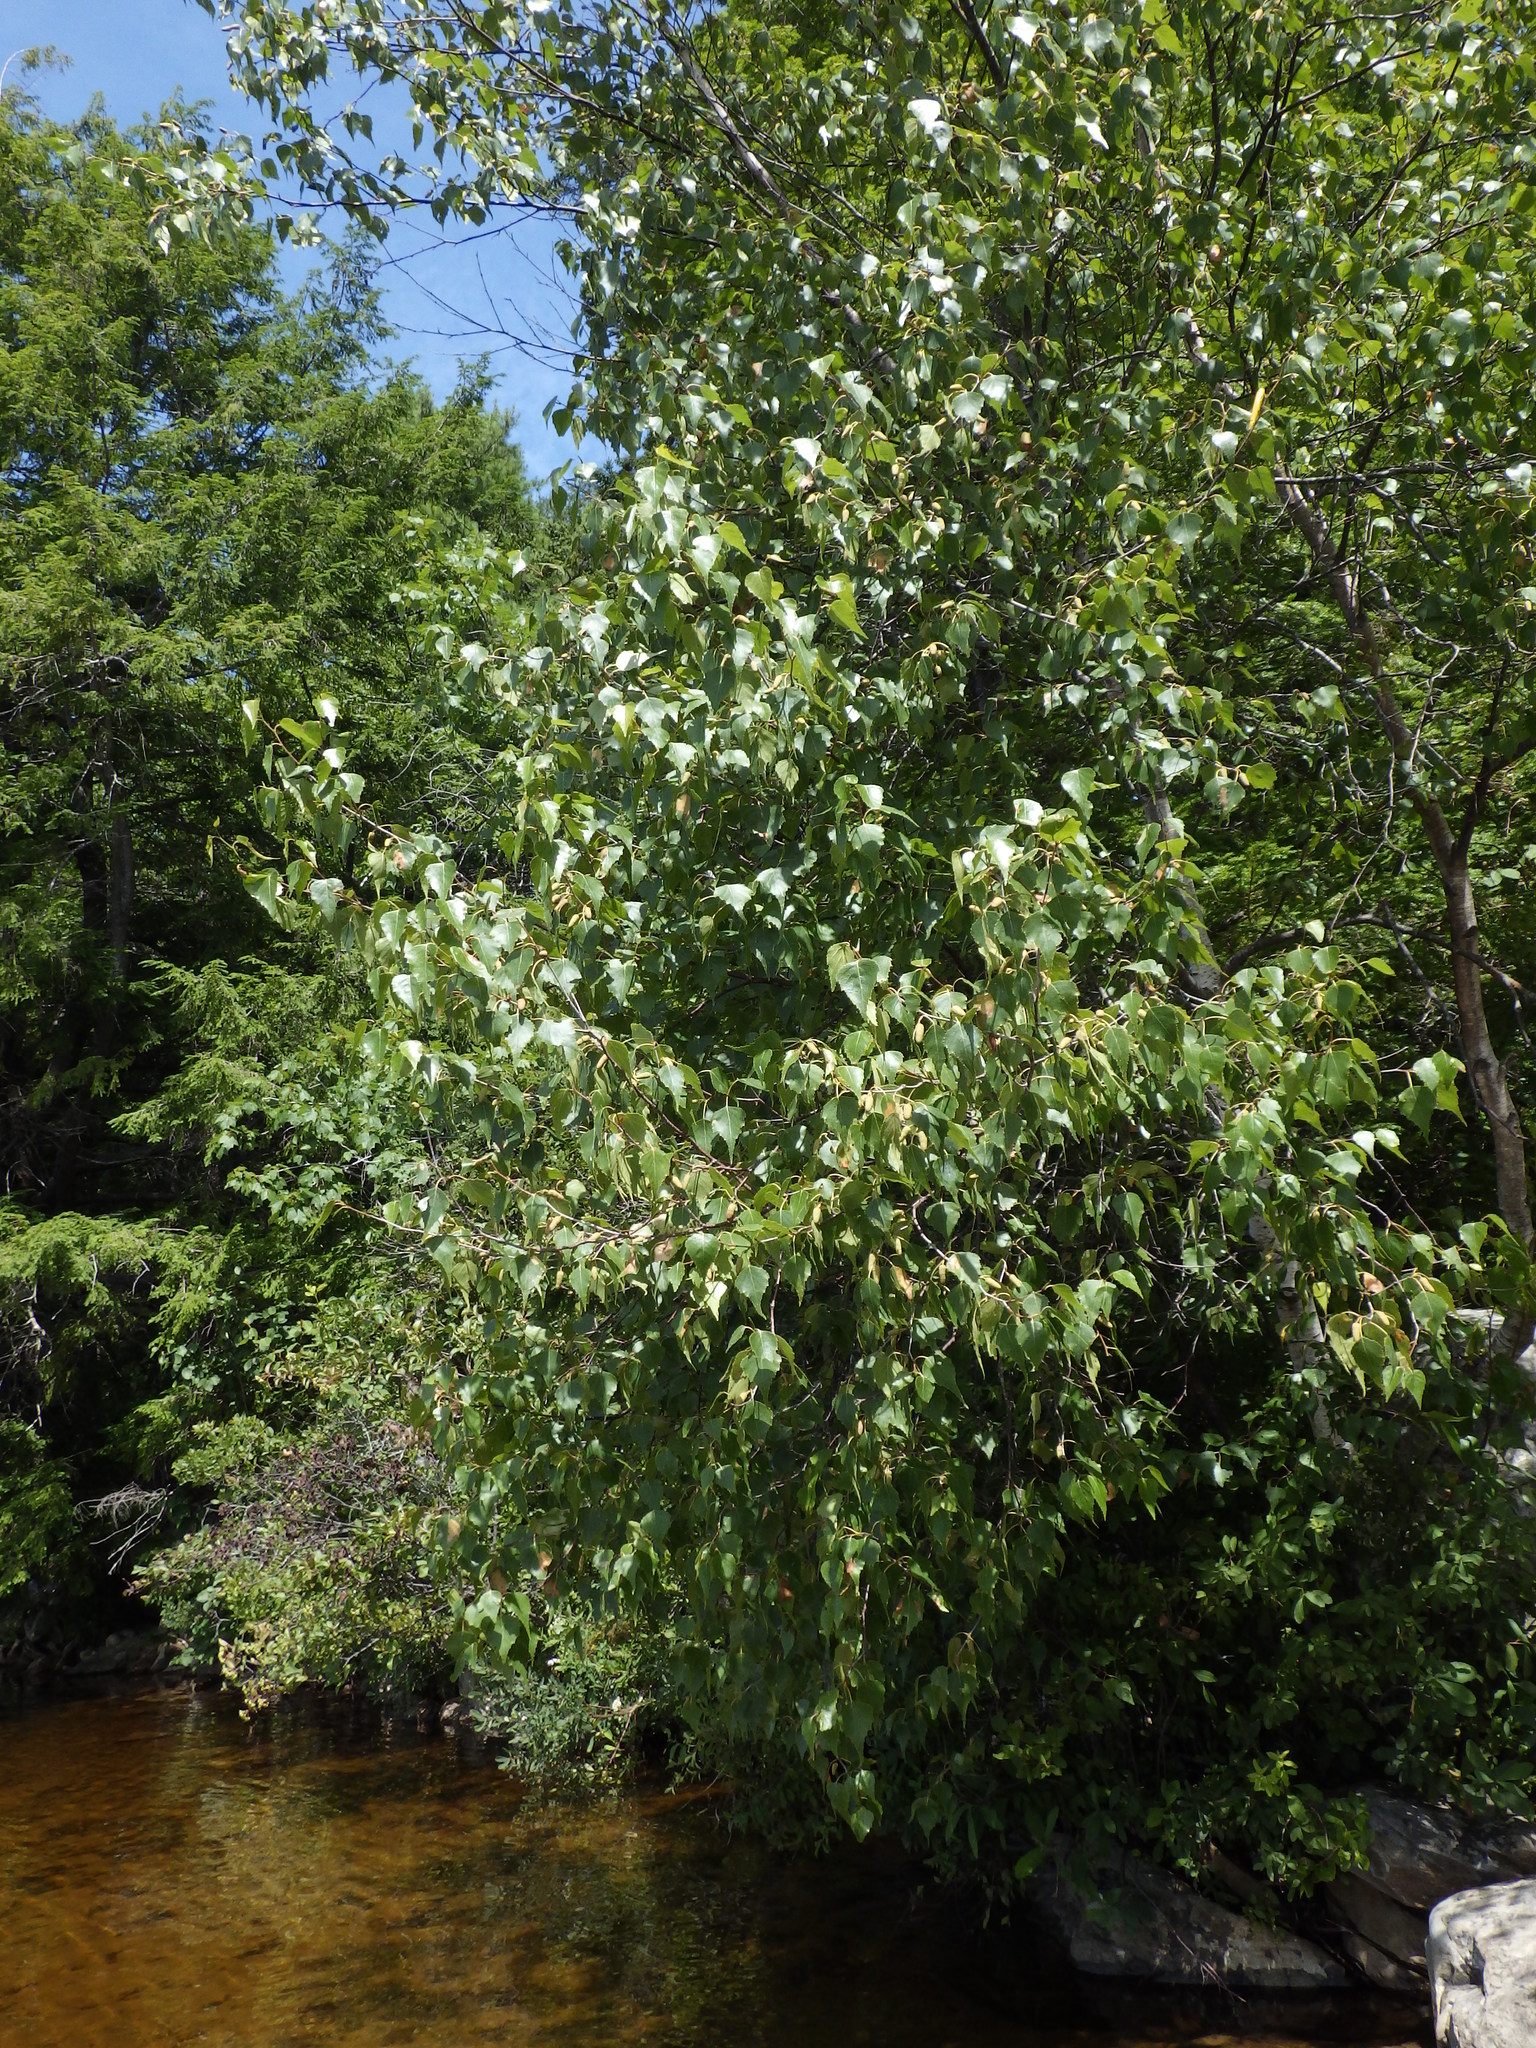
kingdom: Plantae
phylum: Tracheophyta
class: Magnoliopsida
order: Fagales
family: Betulaceae
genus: Betula
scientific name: Betula populifolia
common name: Fire birch
